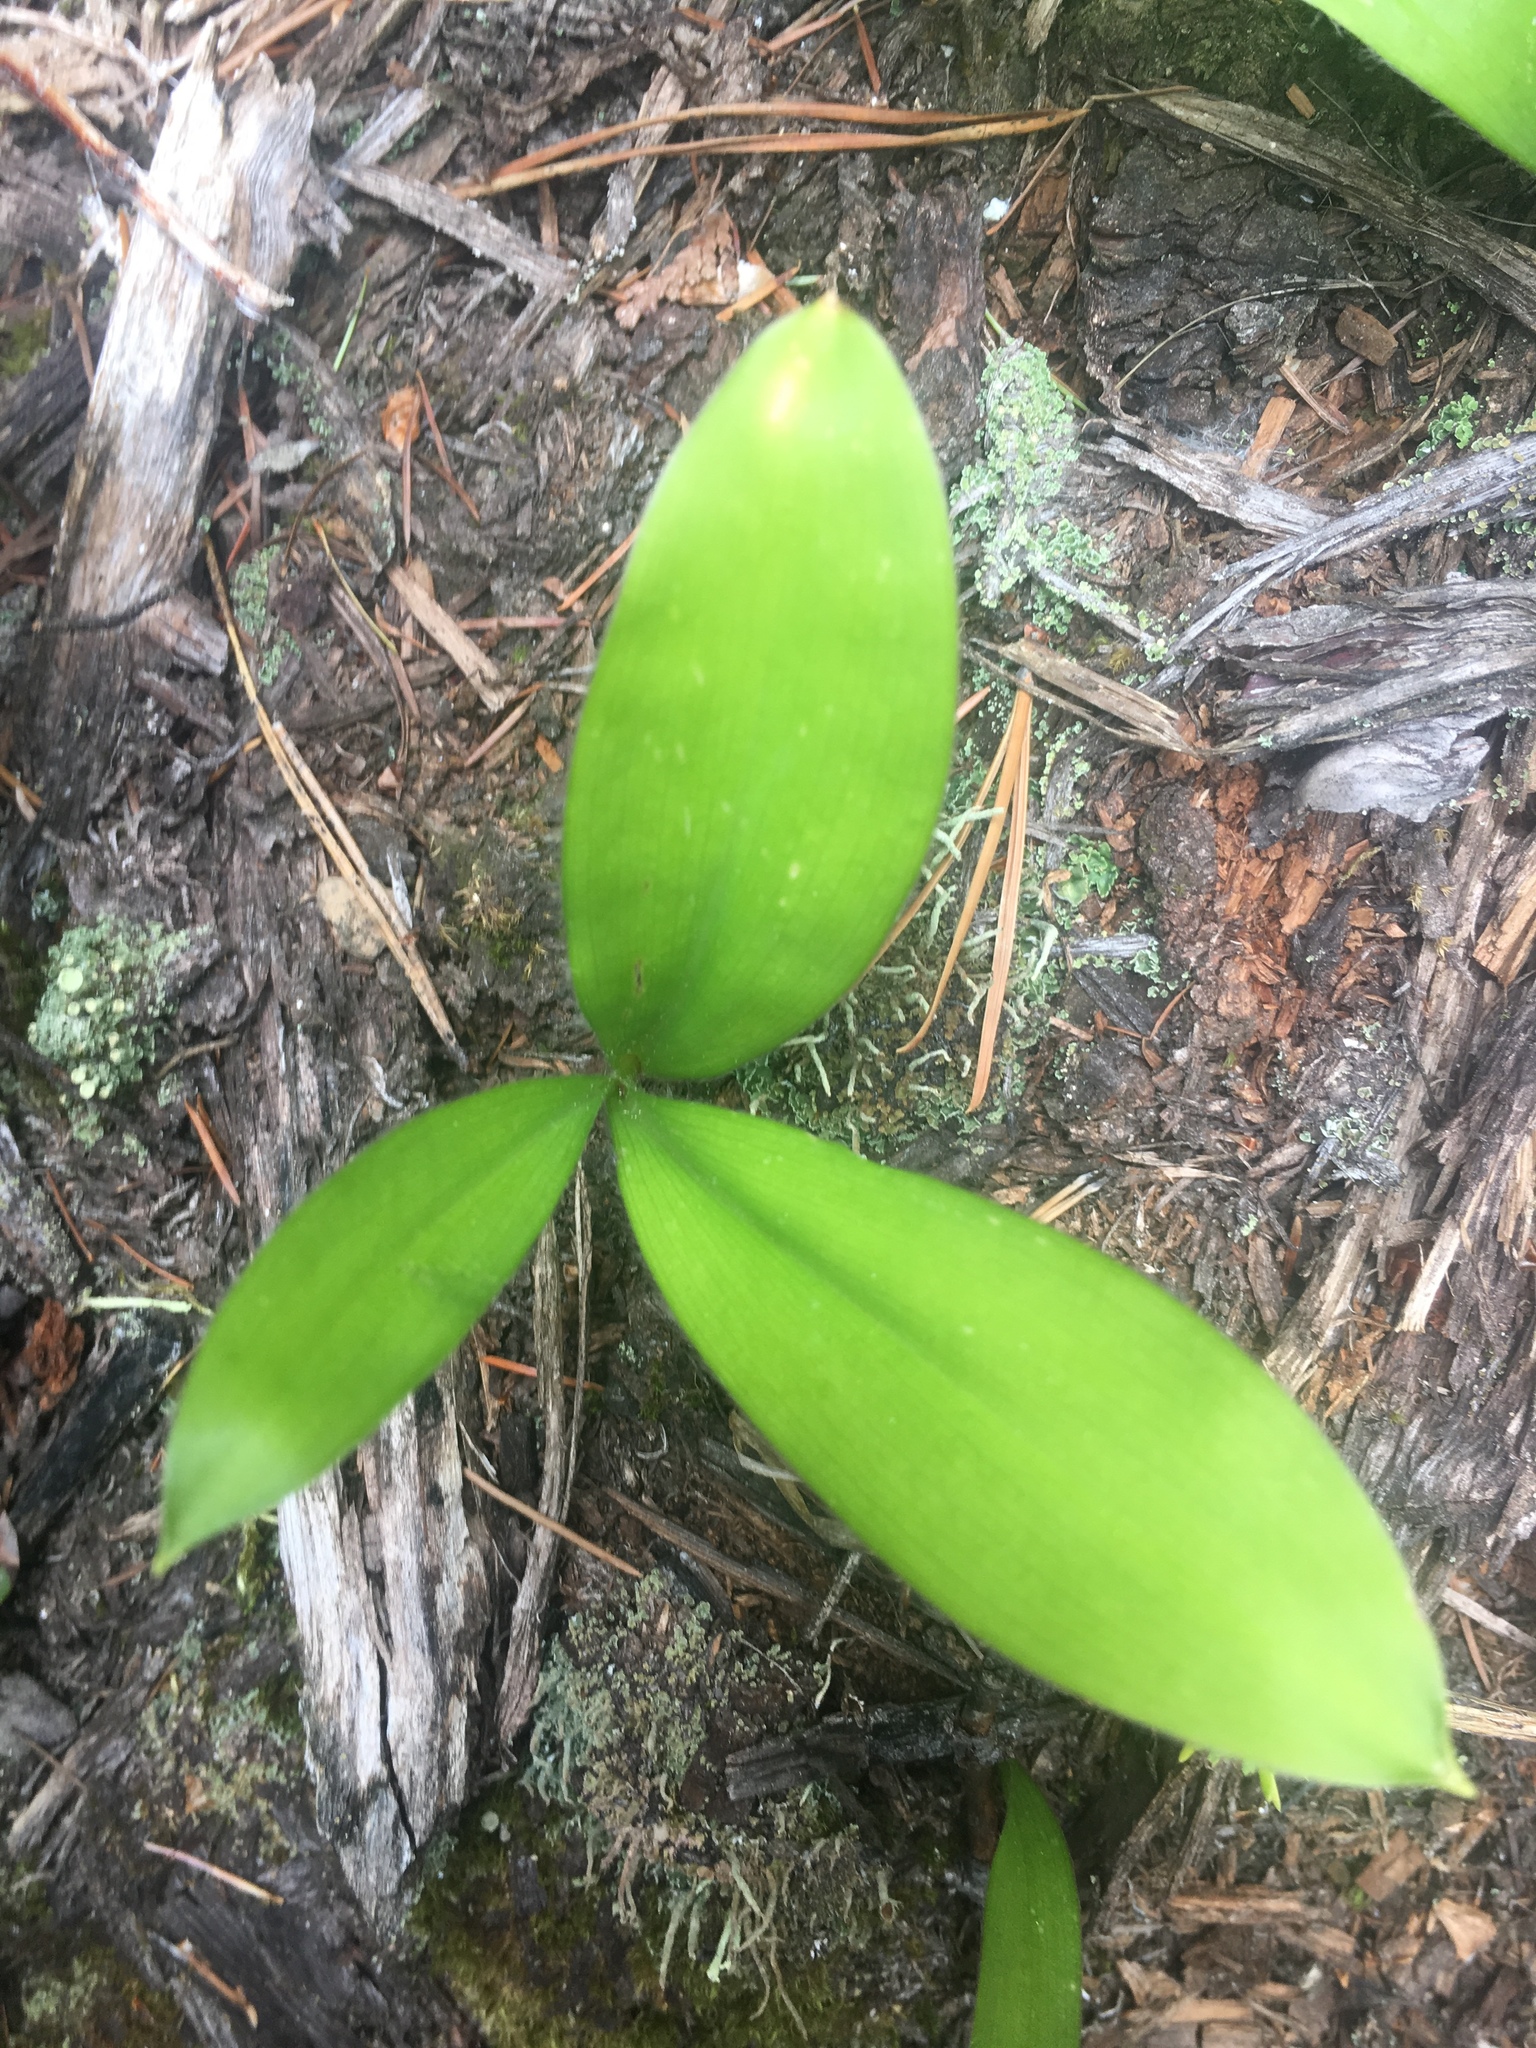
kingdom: Plantae
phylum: Tracheophyta
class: Liliopsida
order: Liliales
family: Liliaceae
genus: Clintonia
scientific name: Clintonia uniflora
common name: Queen's cup
